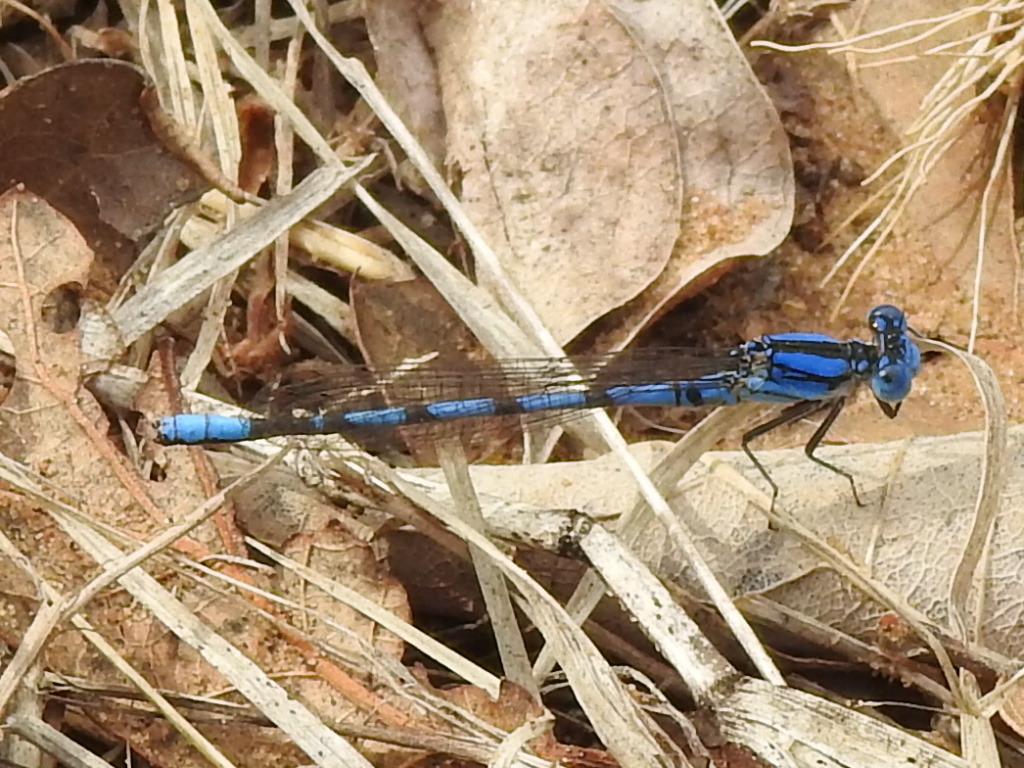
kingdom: Animalia
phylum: Arthropoda
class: Insecta
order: Odonata
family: Coenagrionidae
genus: Argia
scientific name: Argia nahuana
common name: Aztec dancer
